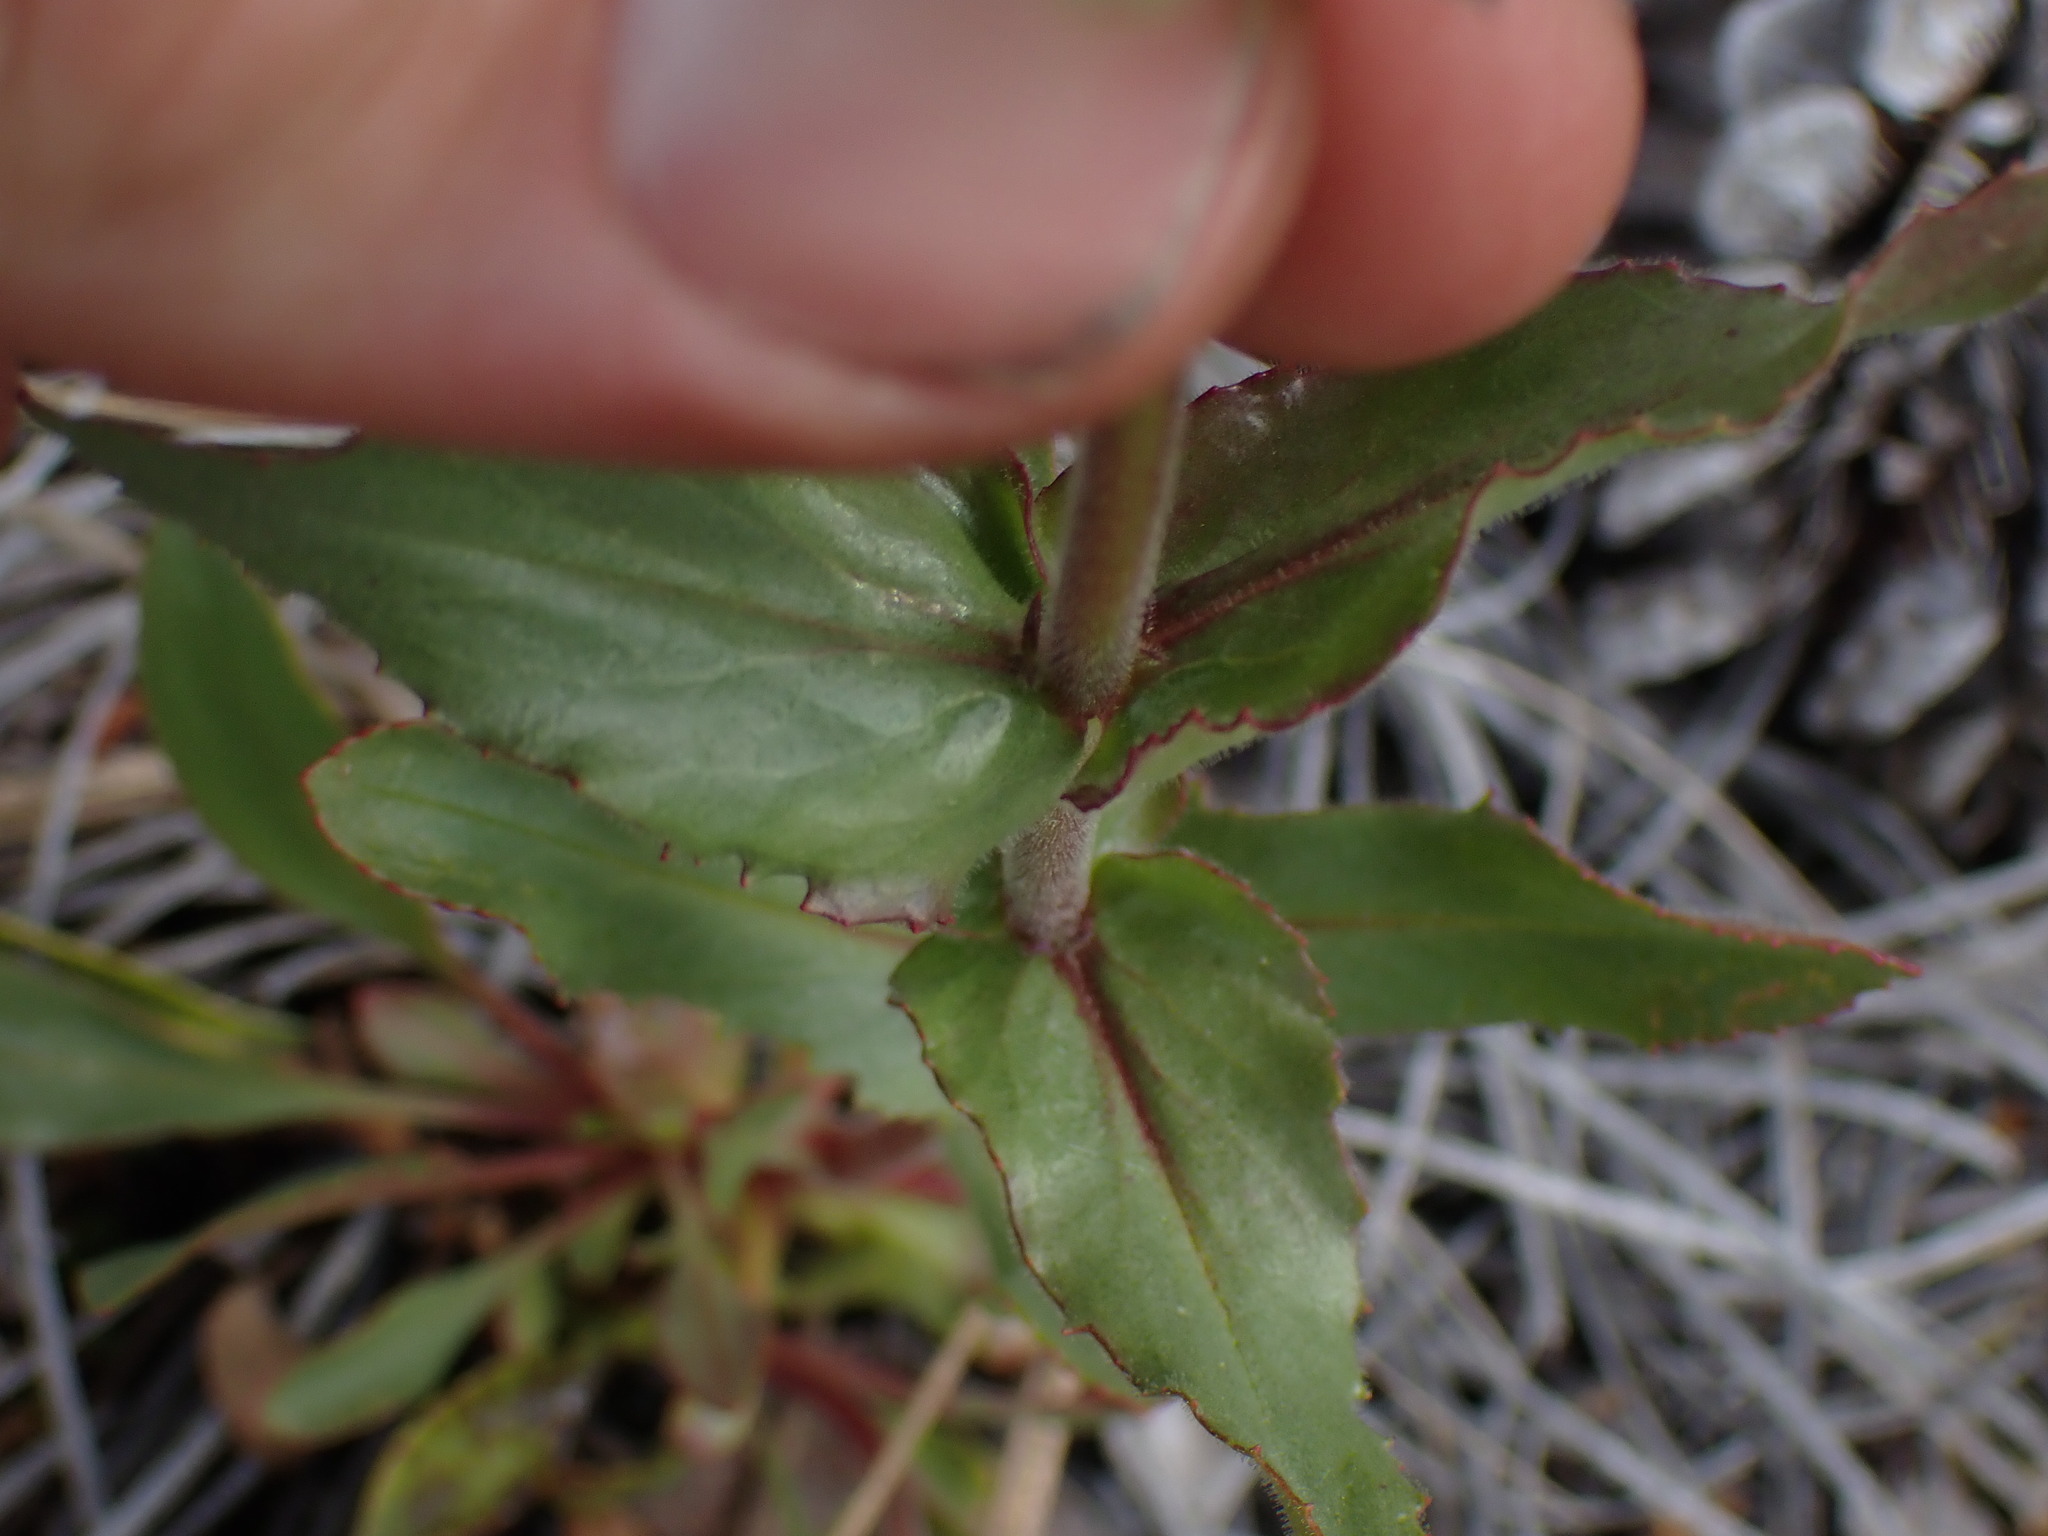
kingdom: Plantae
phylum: Tracheophyta
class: Magnoliopsida
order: Lamiales
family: Plantaginaceae
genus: Penstemon
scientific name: Penstemon pruinosus
